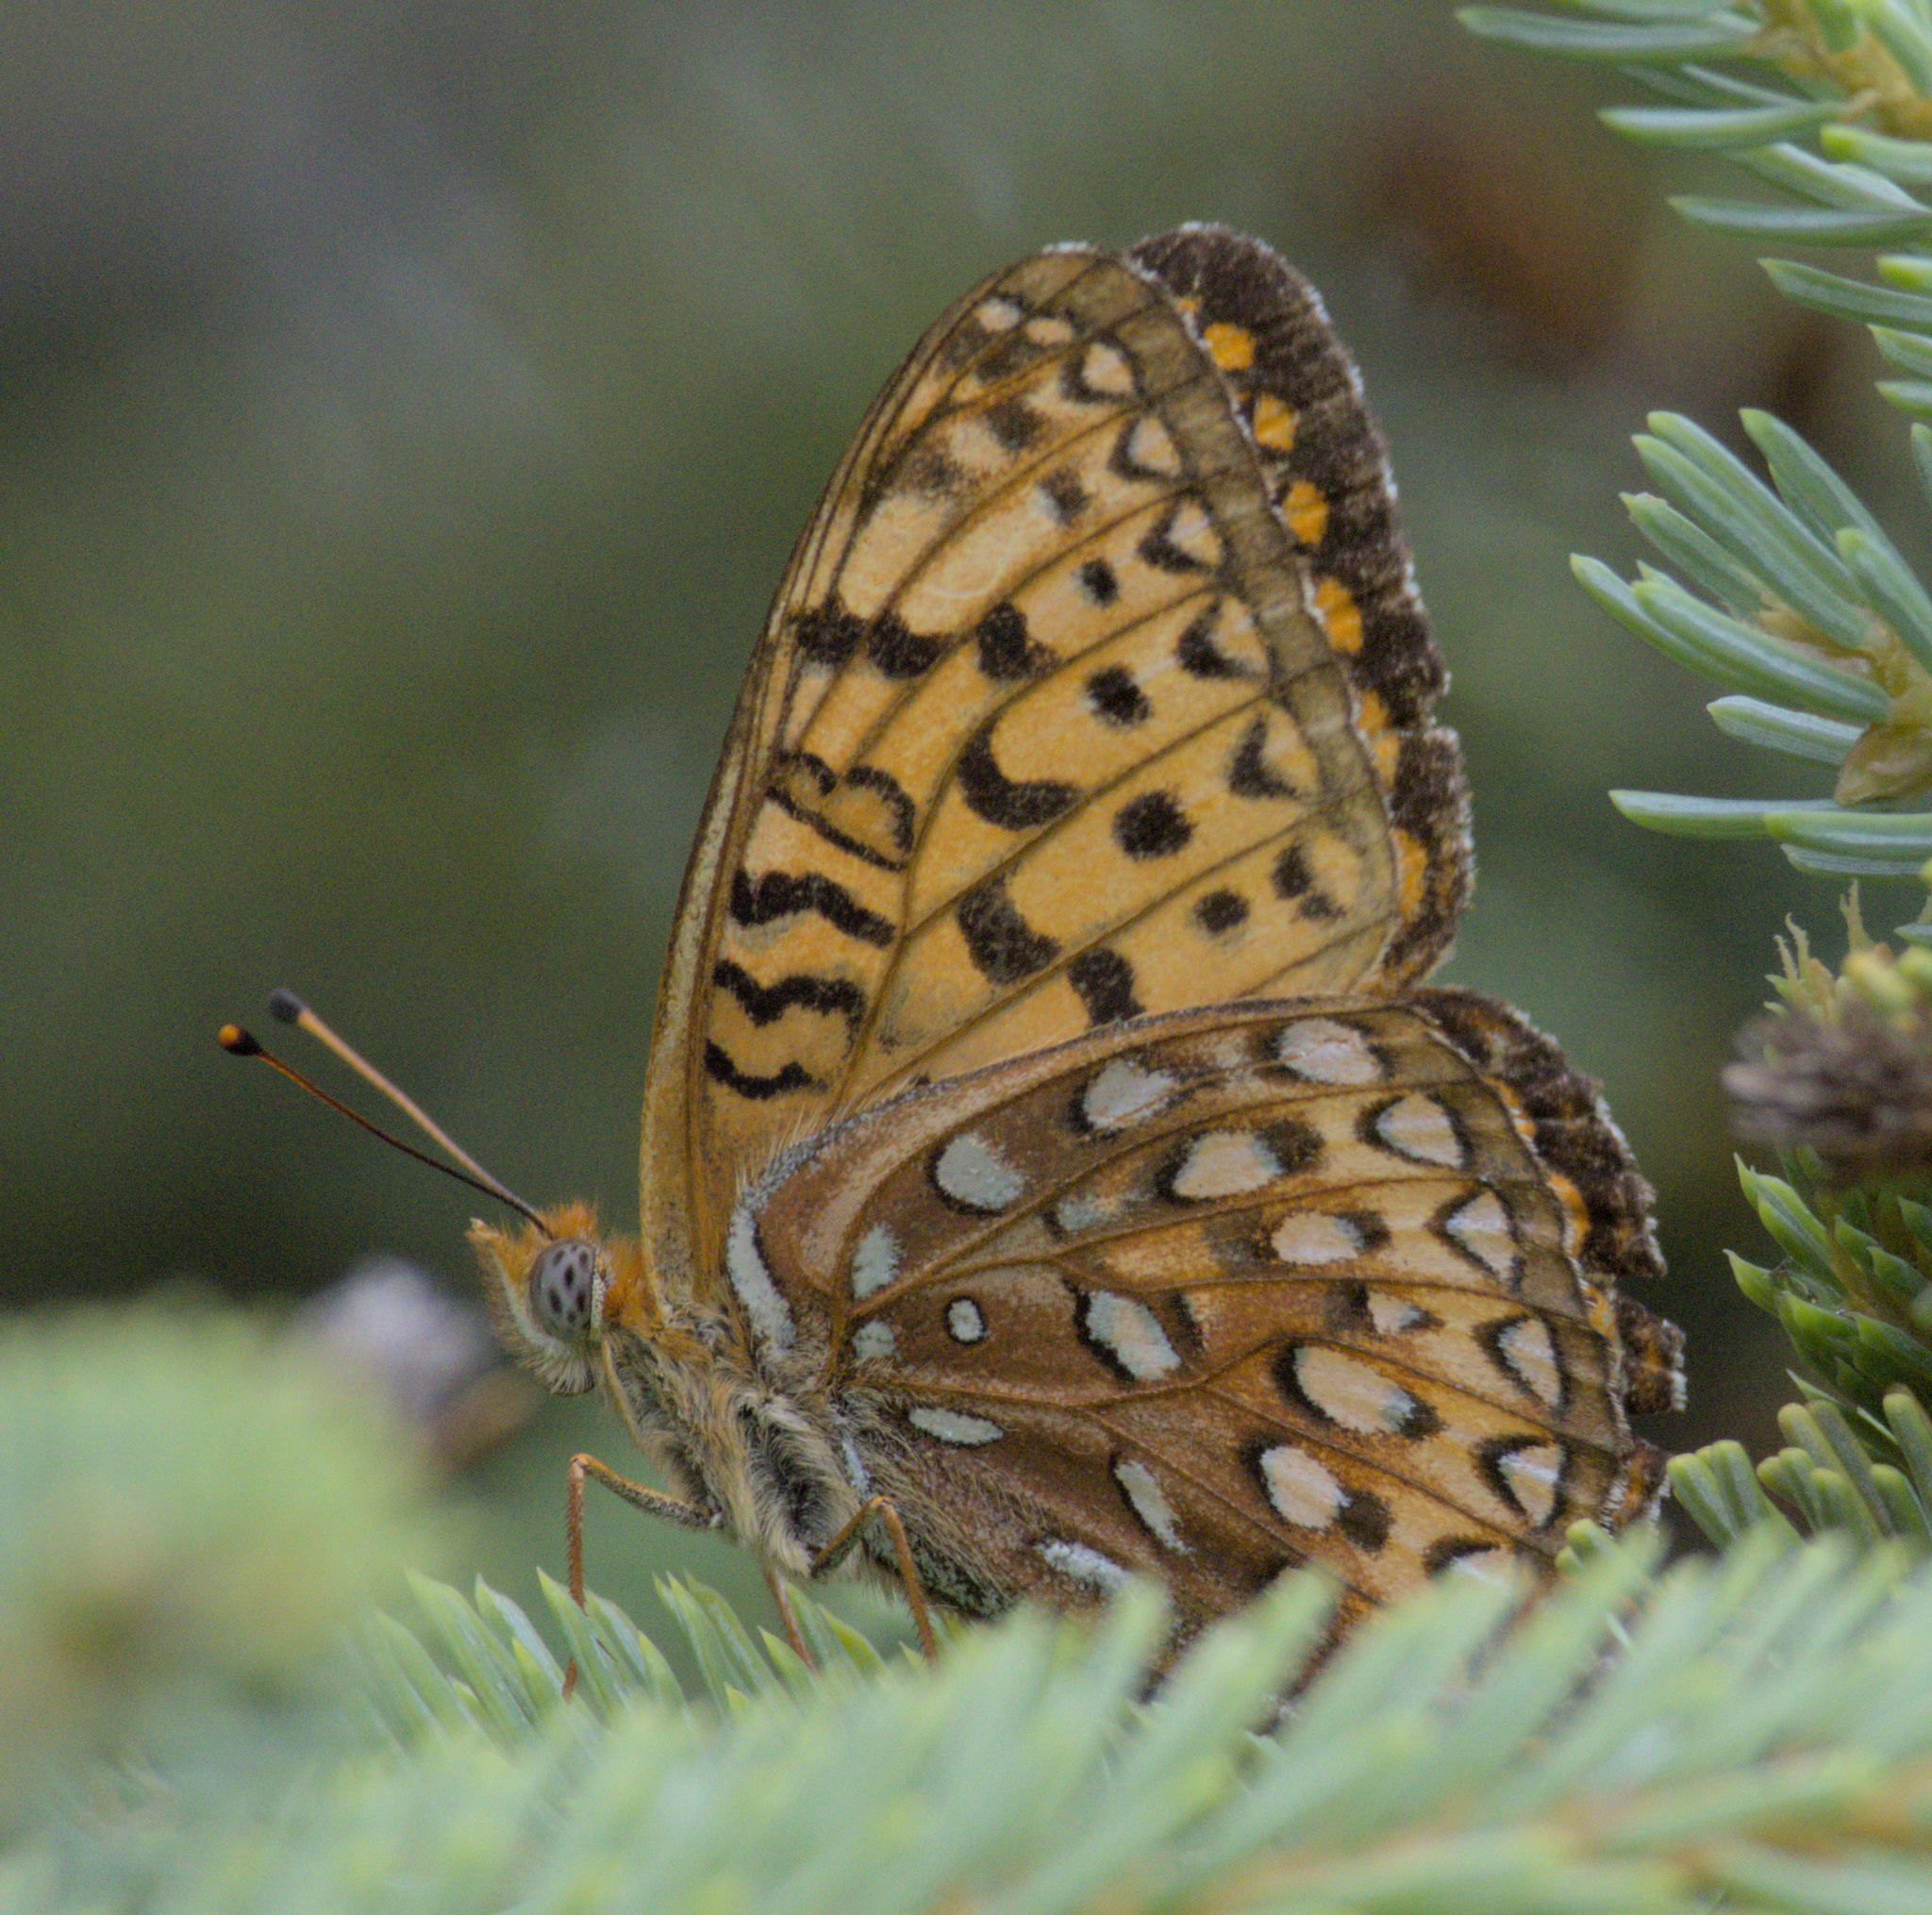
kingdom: Animalia
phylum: Arthropoda
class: Insecta
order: Lepidoptera
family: Nymphalidae
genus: Speyeria
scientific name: Speyeria atlantis
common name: Atlantis fritillary
